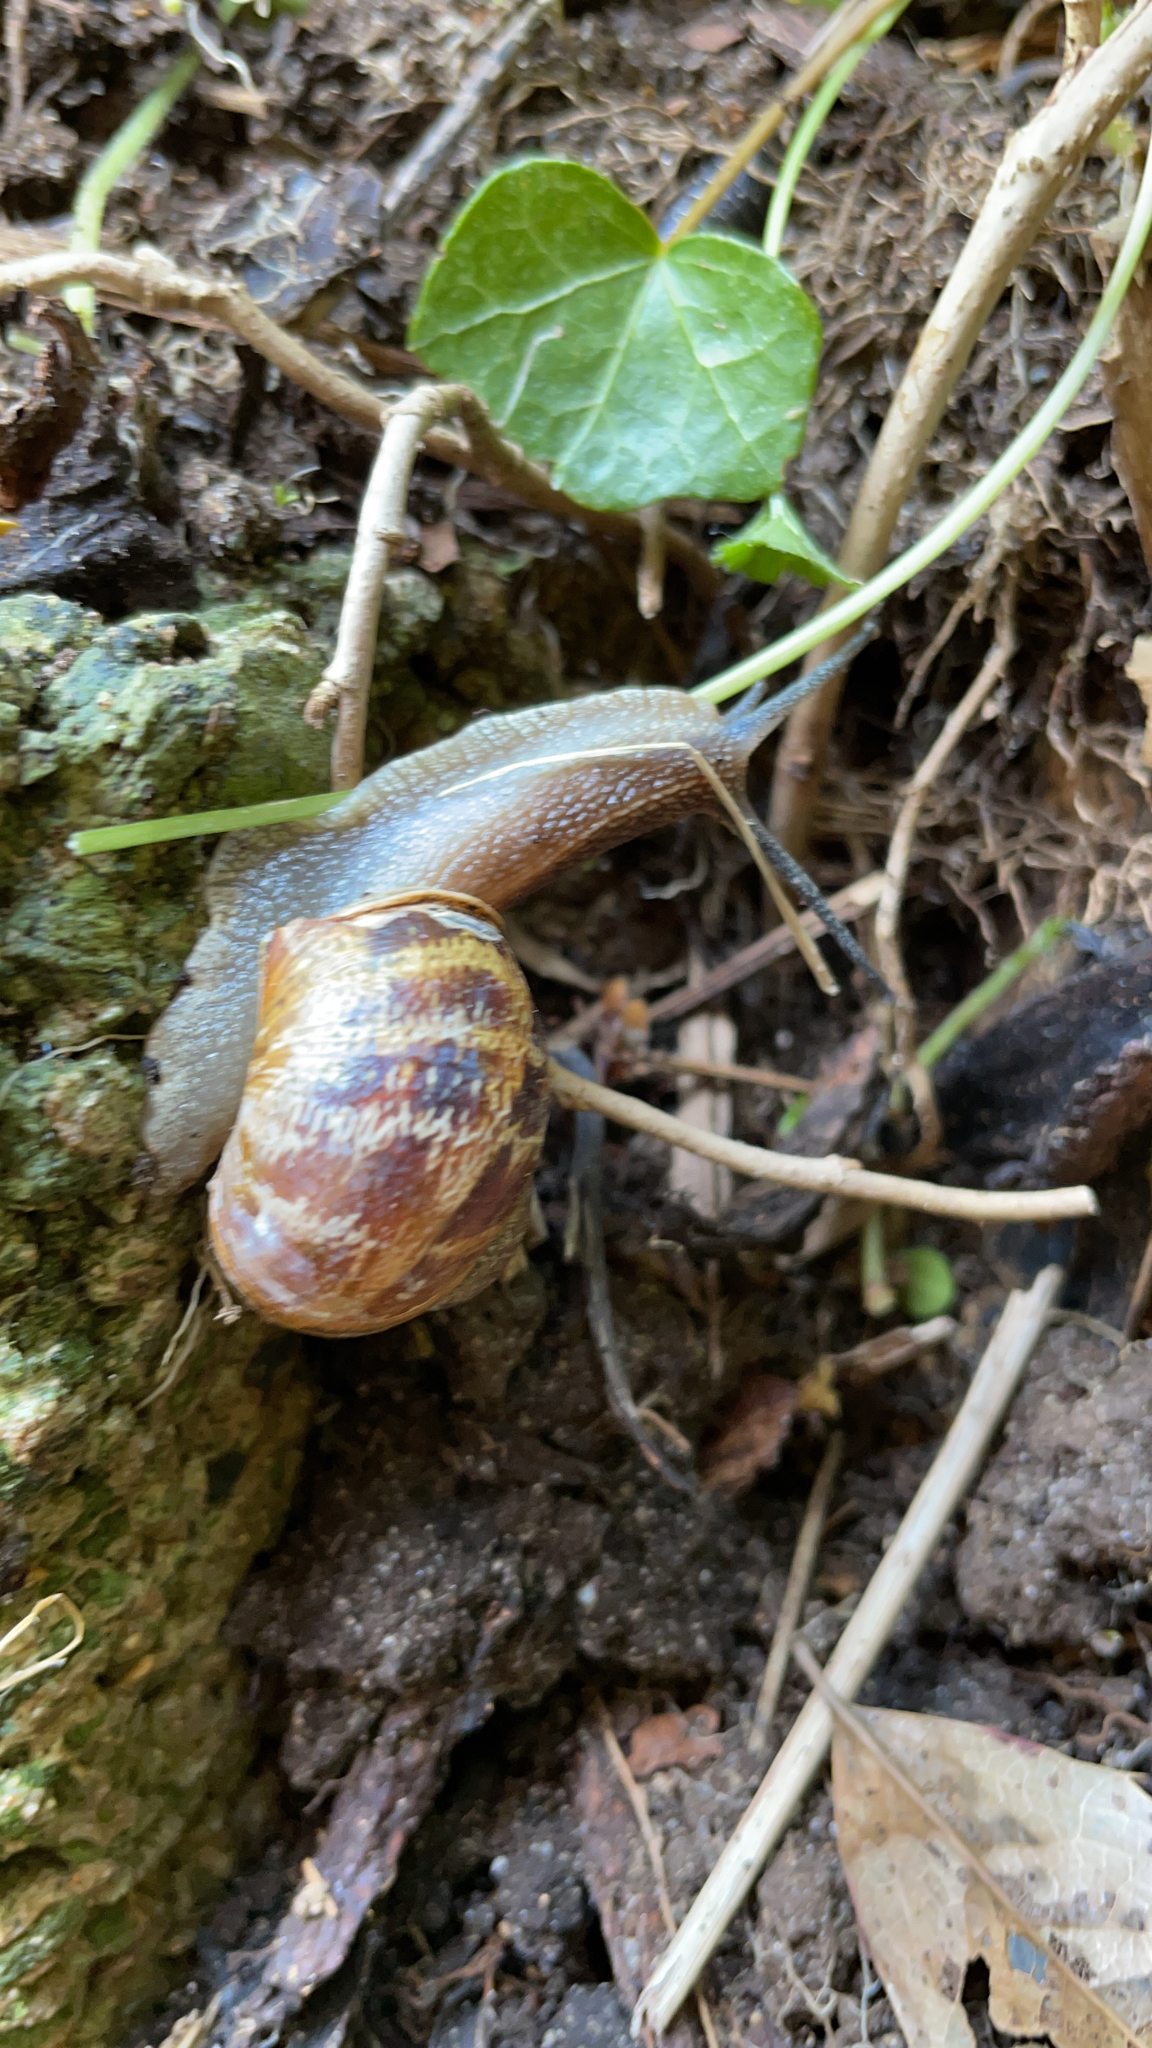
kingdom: Animalia
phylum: Mollusca
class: Gastropoda
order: Stylommatophora
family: Helicidae
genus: Cornu
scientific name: Cornu aspersum
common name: Brown garden snail
